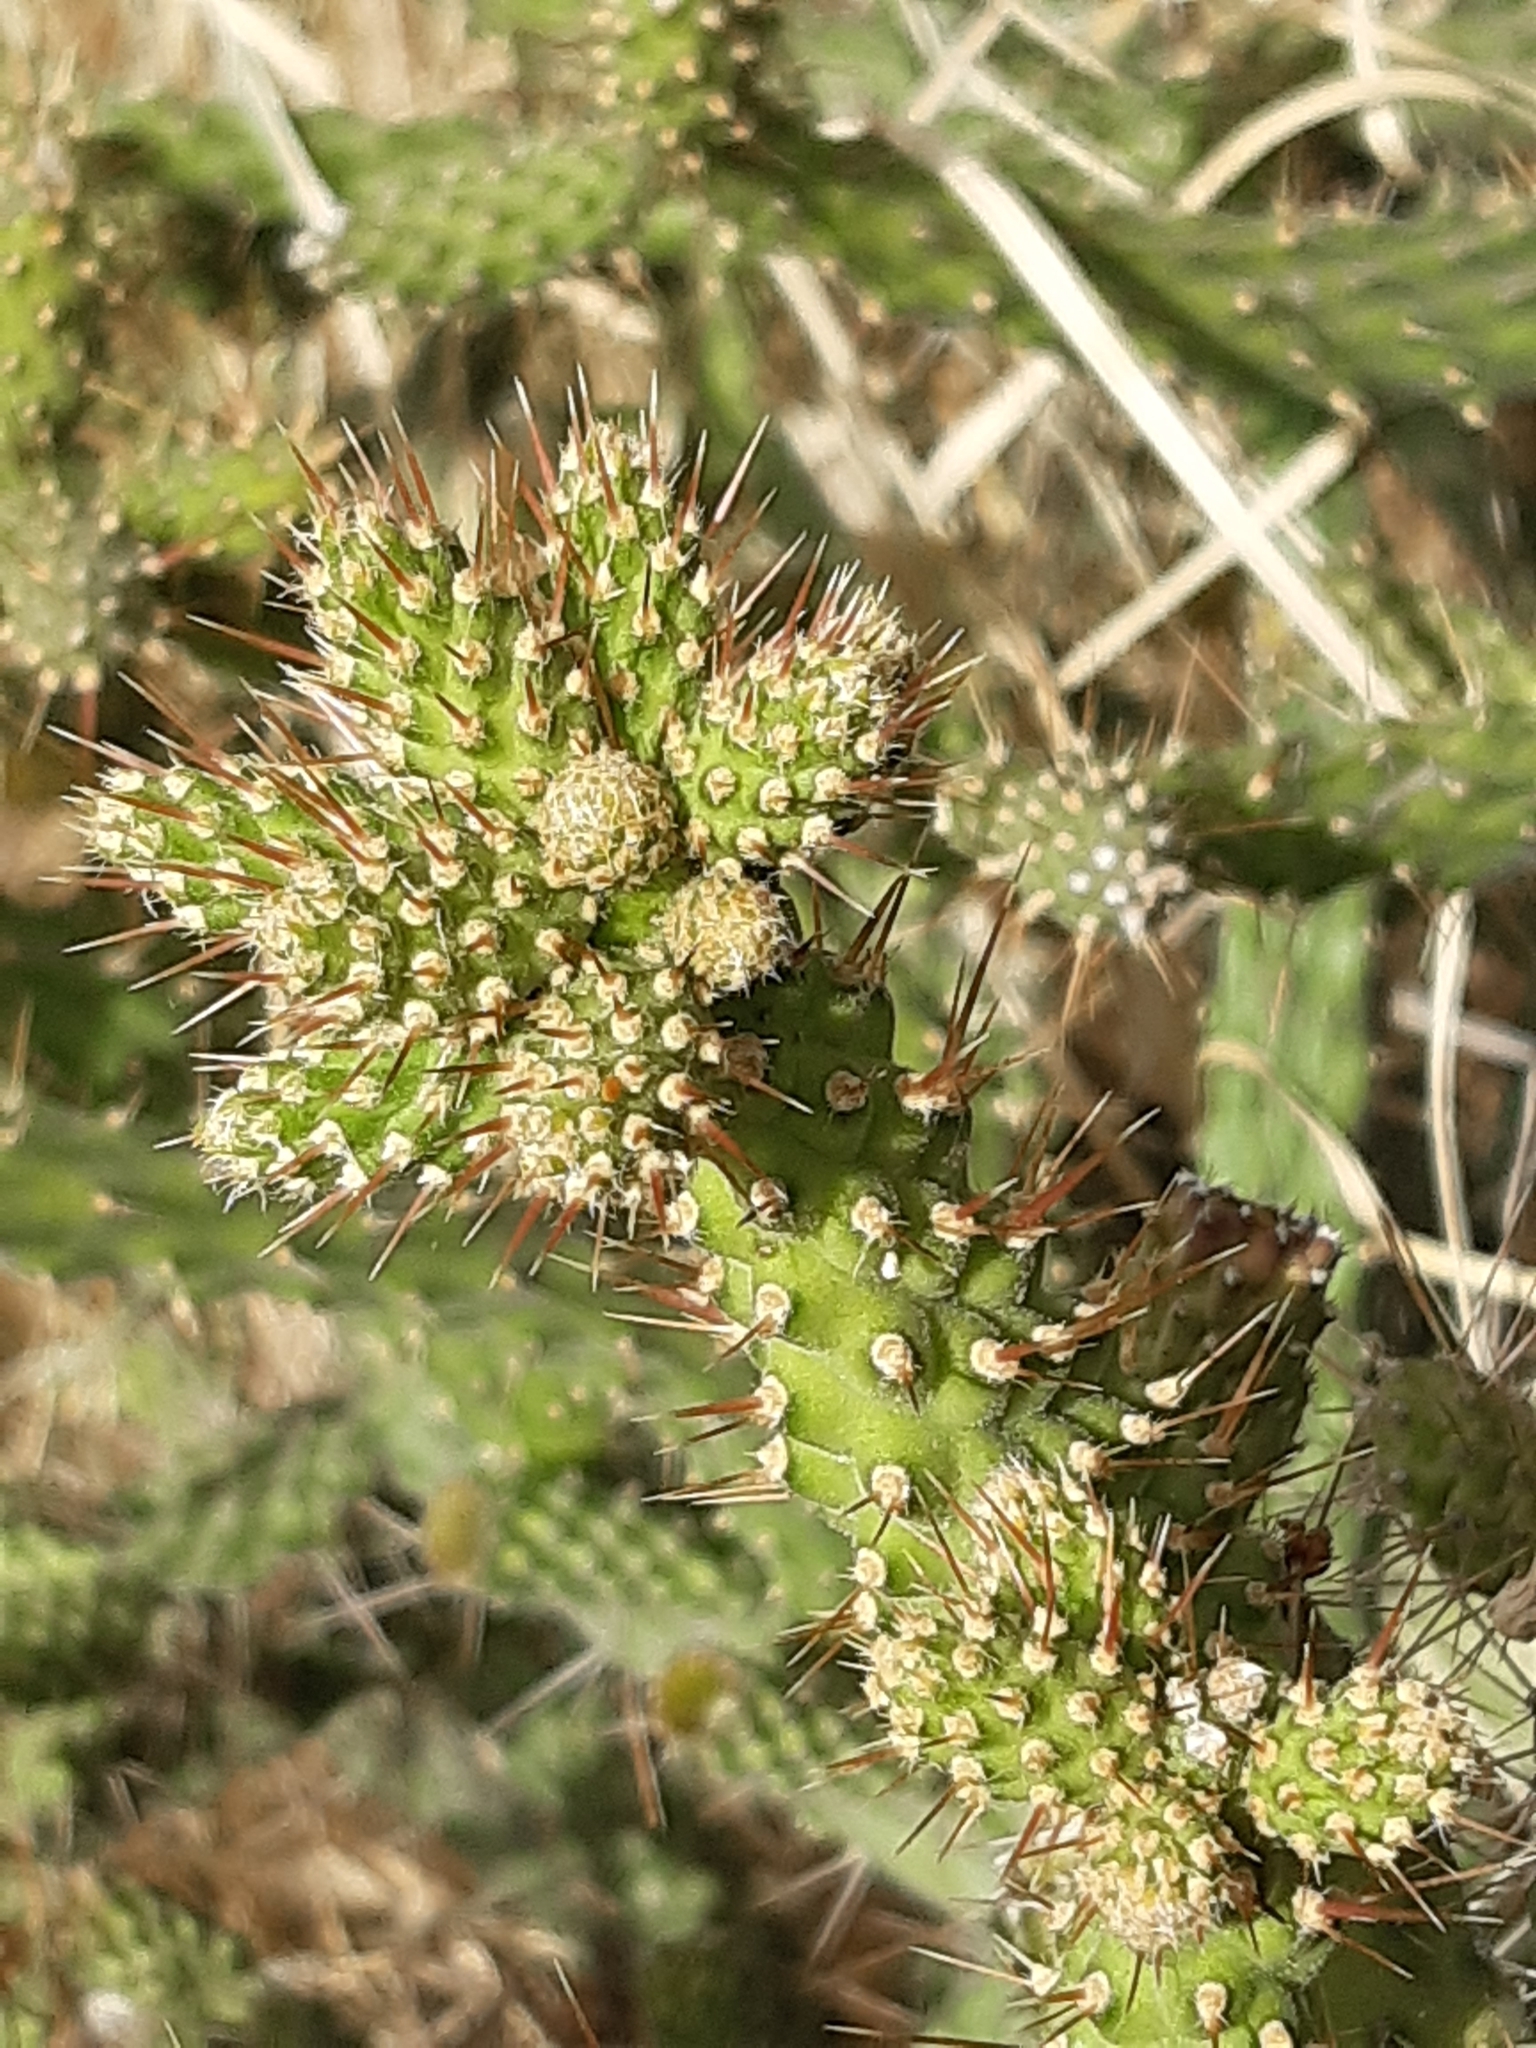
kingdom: Plantae
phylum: Tracheophyta
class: Magnoliopsida
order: Caryophyllales
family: Cactaceae
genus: Opuntia
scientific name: Opuntia pubescens
